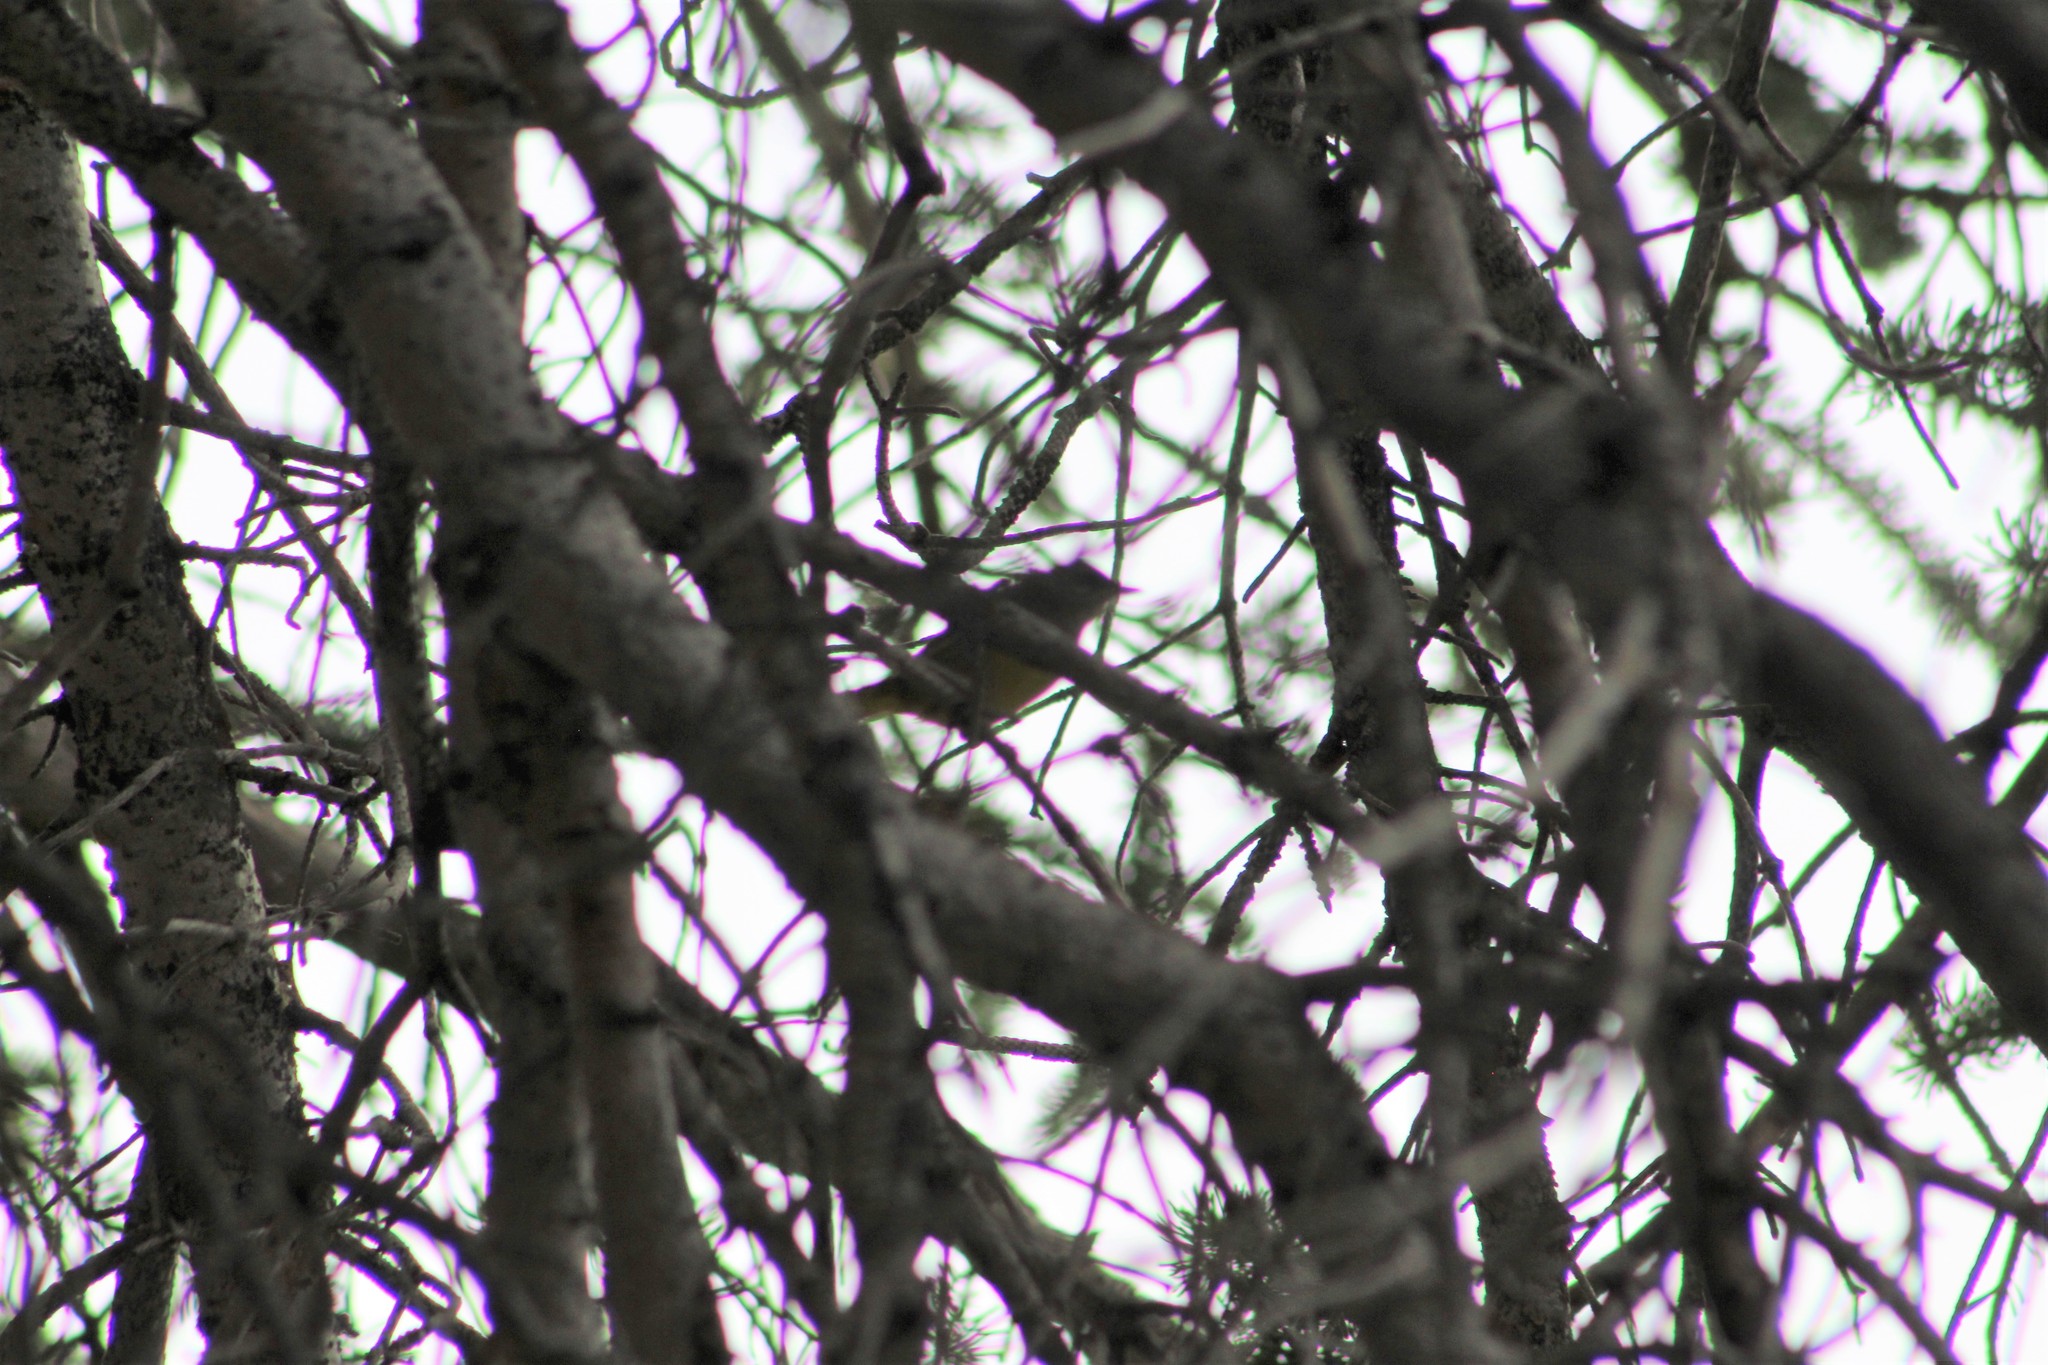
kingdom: Animalia
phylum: Chordata
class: Aves
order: Passeriformes
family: Parulidae
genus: Geothlypis
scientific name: Geothlypis tolmiei
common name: Macgillivray's warbler
